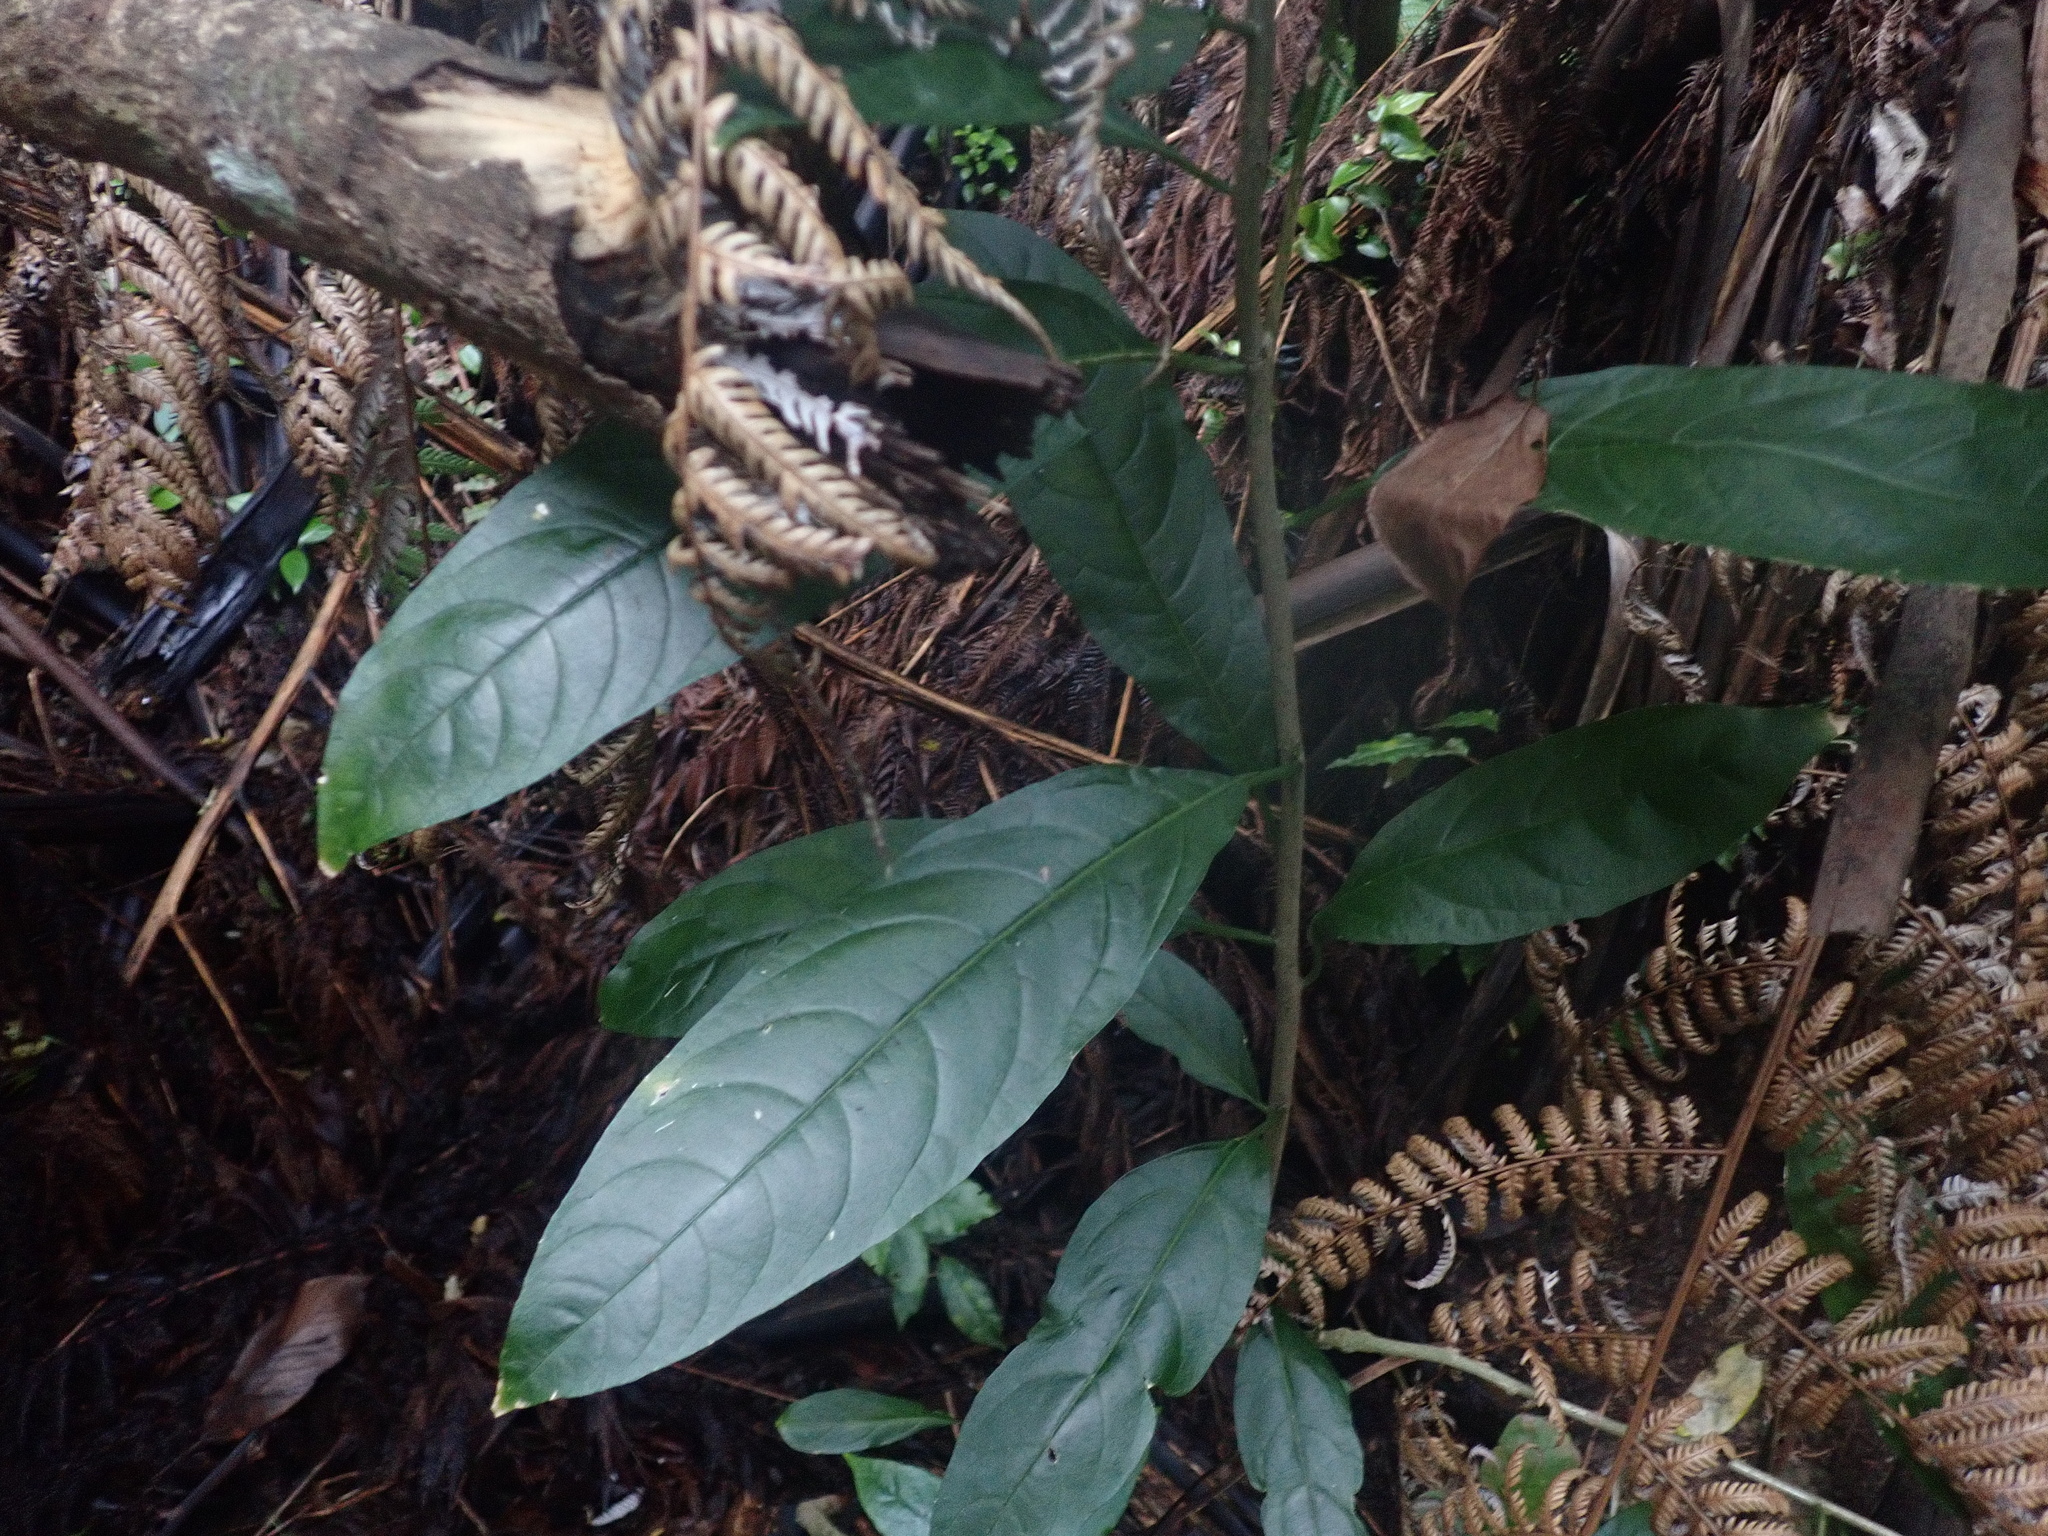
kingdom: Plantae
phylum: Tracheophyta
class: Magnoliopsida
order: Solanales
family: Solanaceae
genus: Cestrum
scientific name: Cestrum nocturnum
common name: Night jessamine
